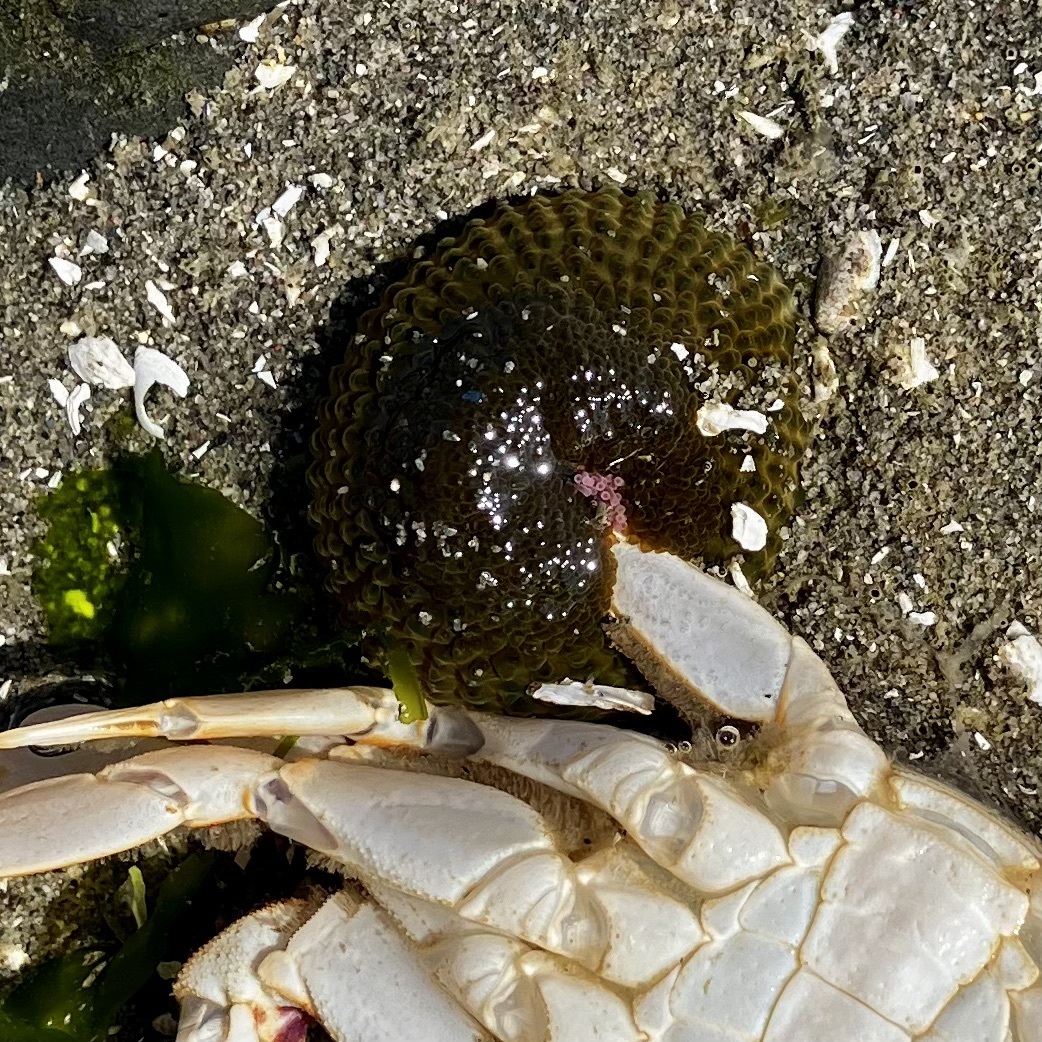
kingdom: Animalia
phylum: Cnidaria
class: Anthozoa
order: Actiniaria
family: Actiniidae
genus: Anthopleura
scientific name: Anthopleura elegantissima
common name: Clonal anemone
